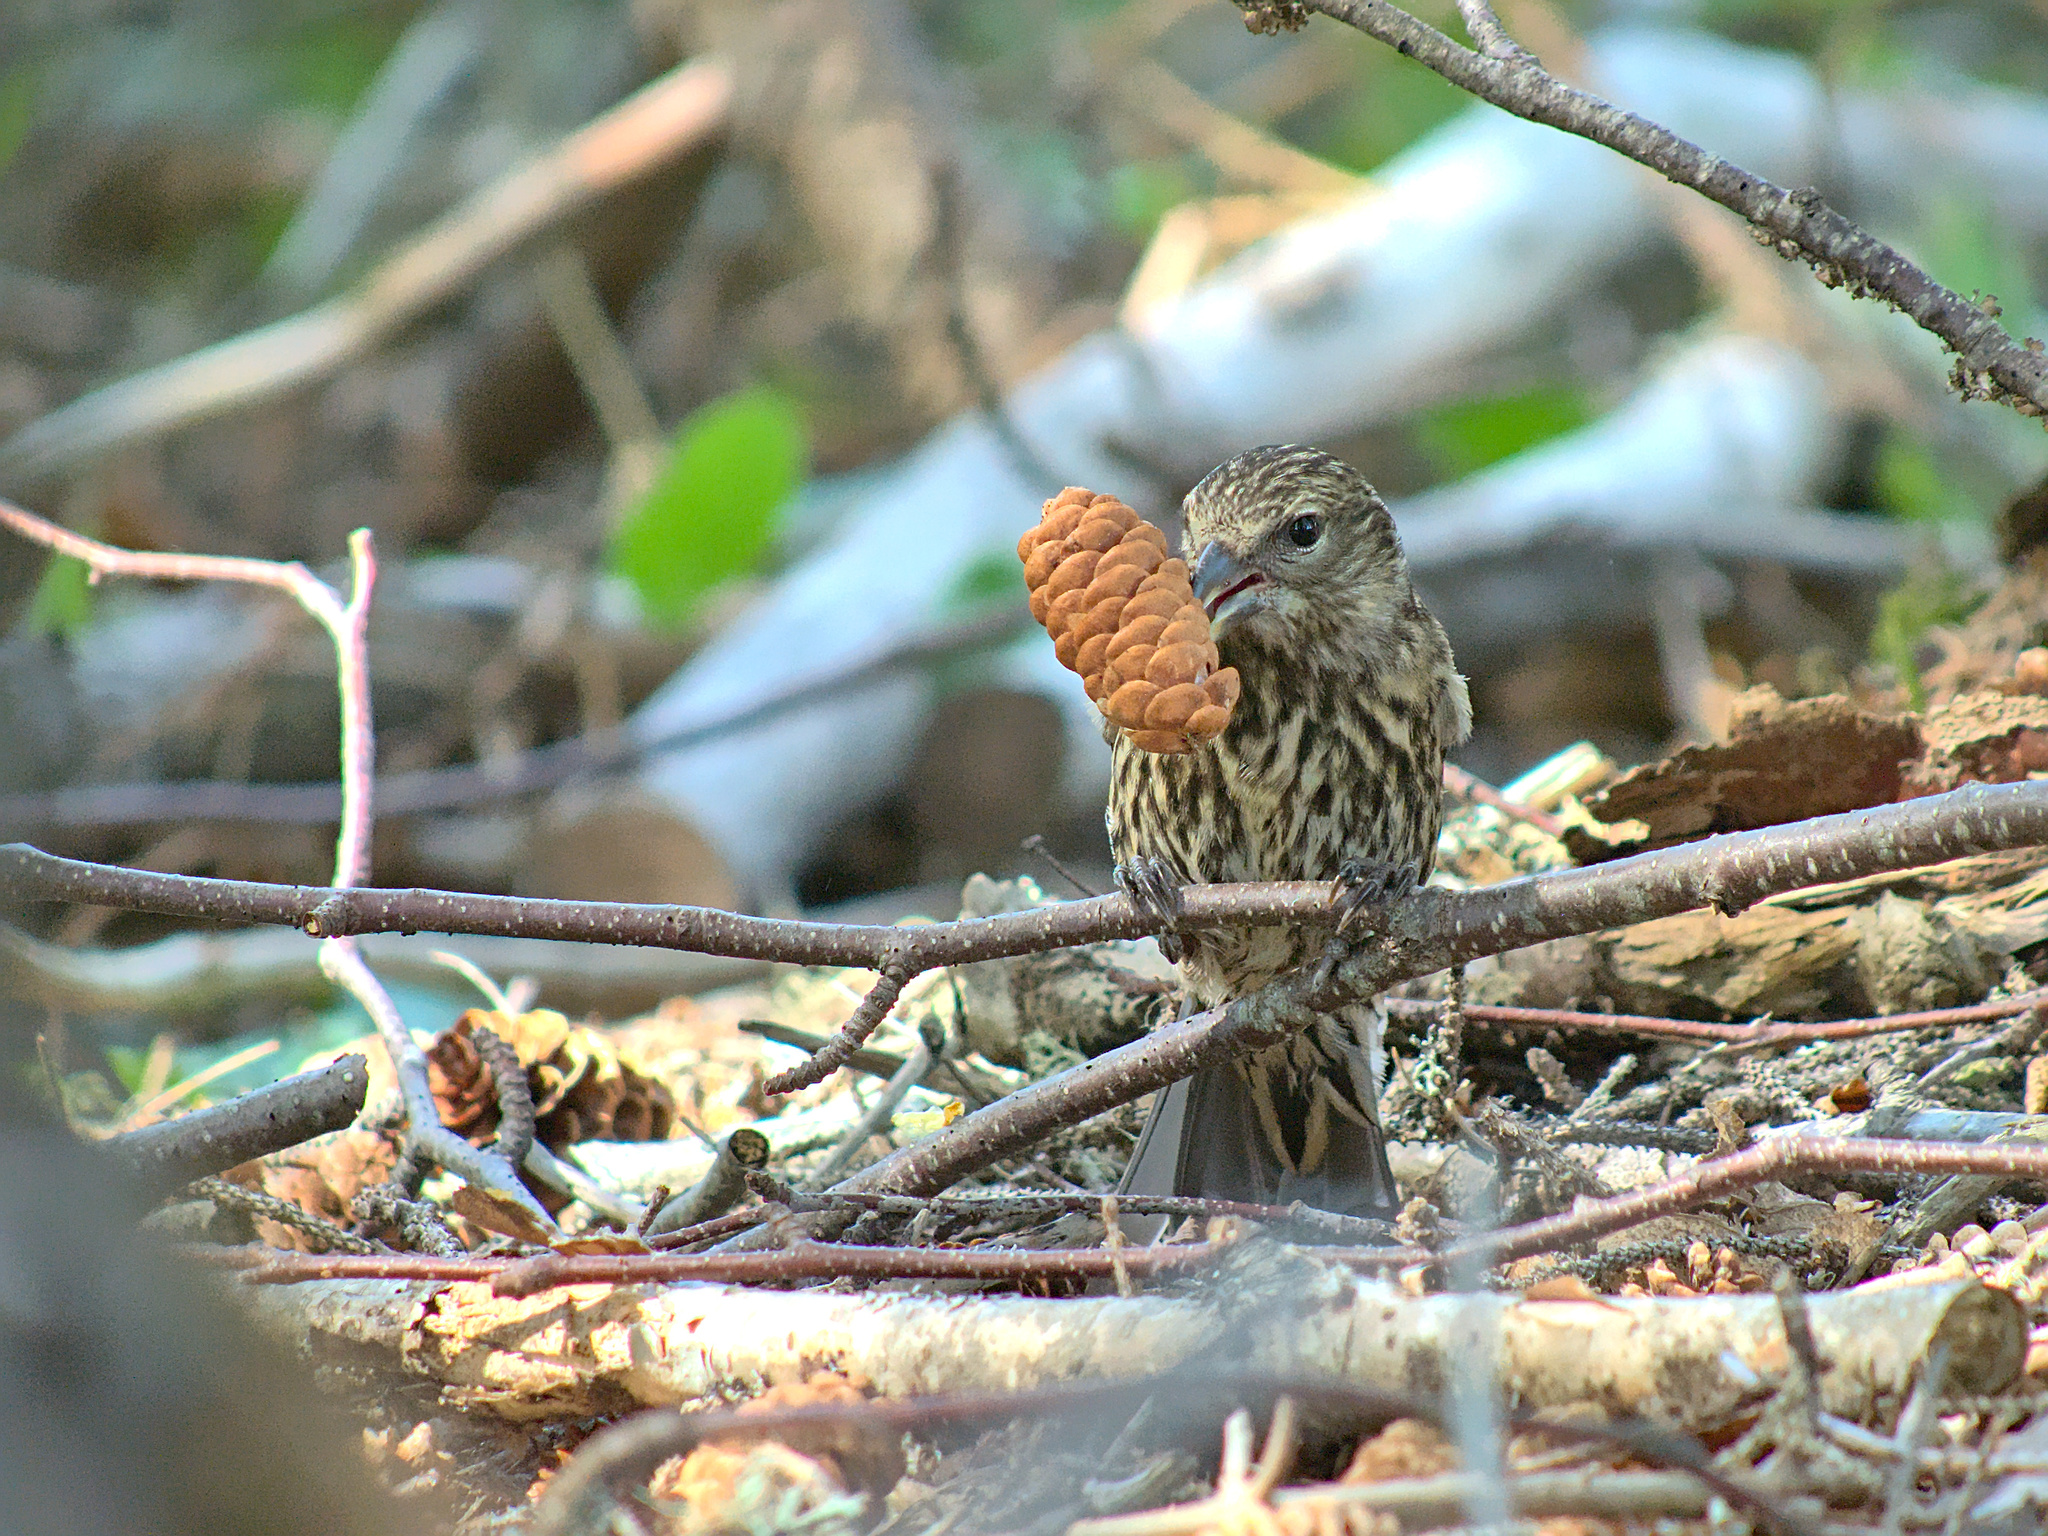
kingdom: Animalia
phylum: Chordata
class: Aves
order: Passeriformes
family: Fringillidae
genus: Loxia
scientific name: Loxia leucoptera
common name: Two-barred crossbill
